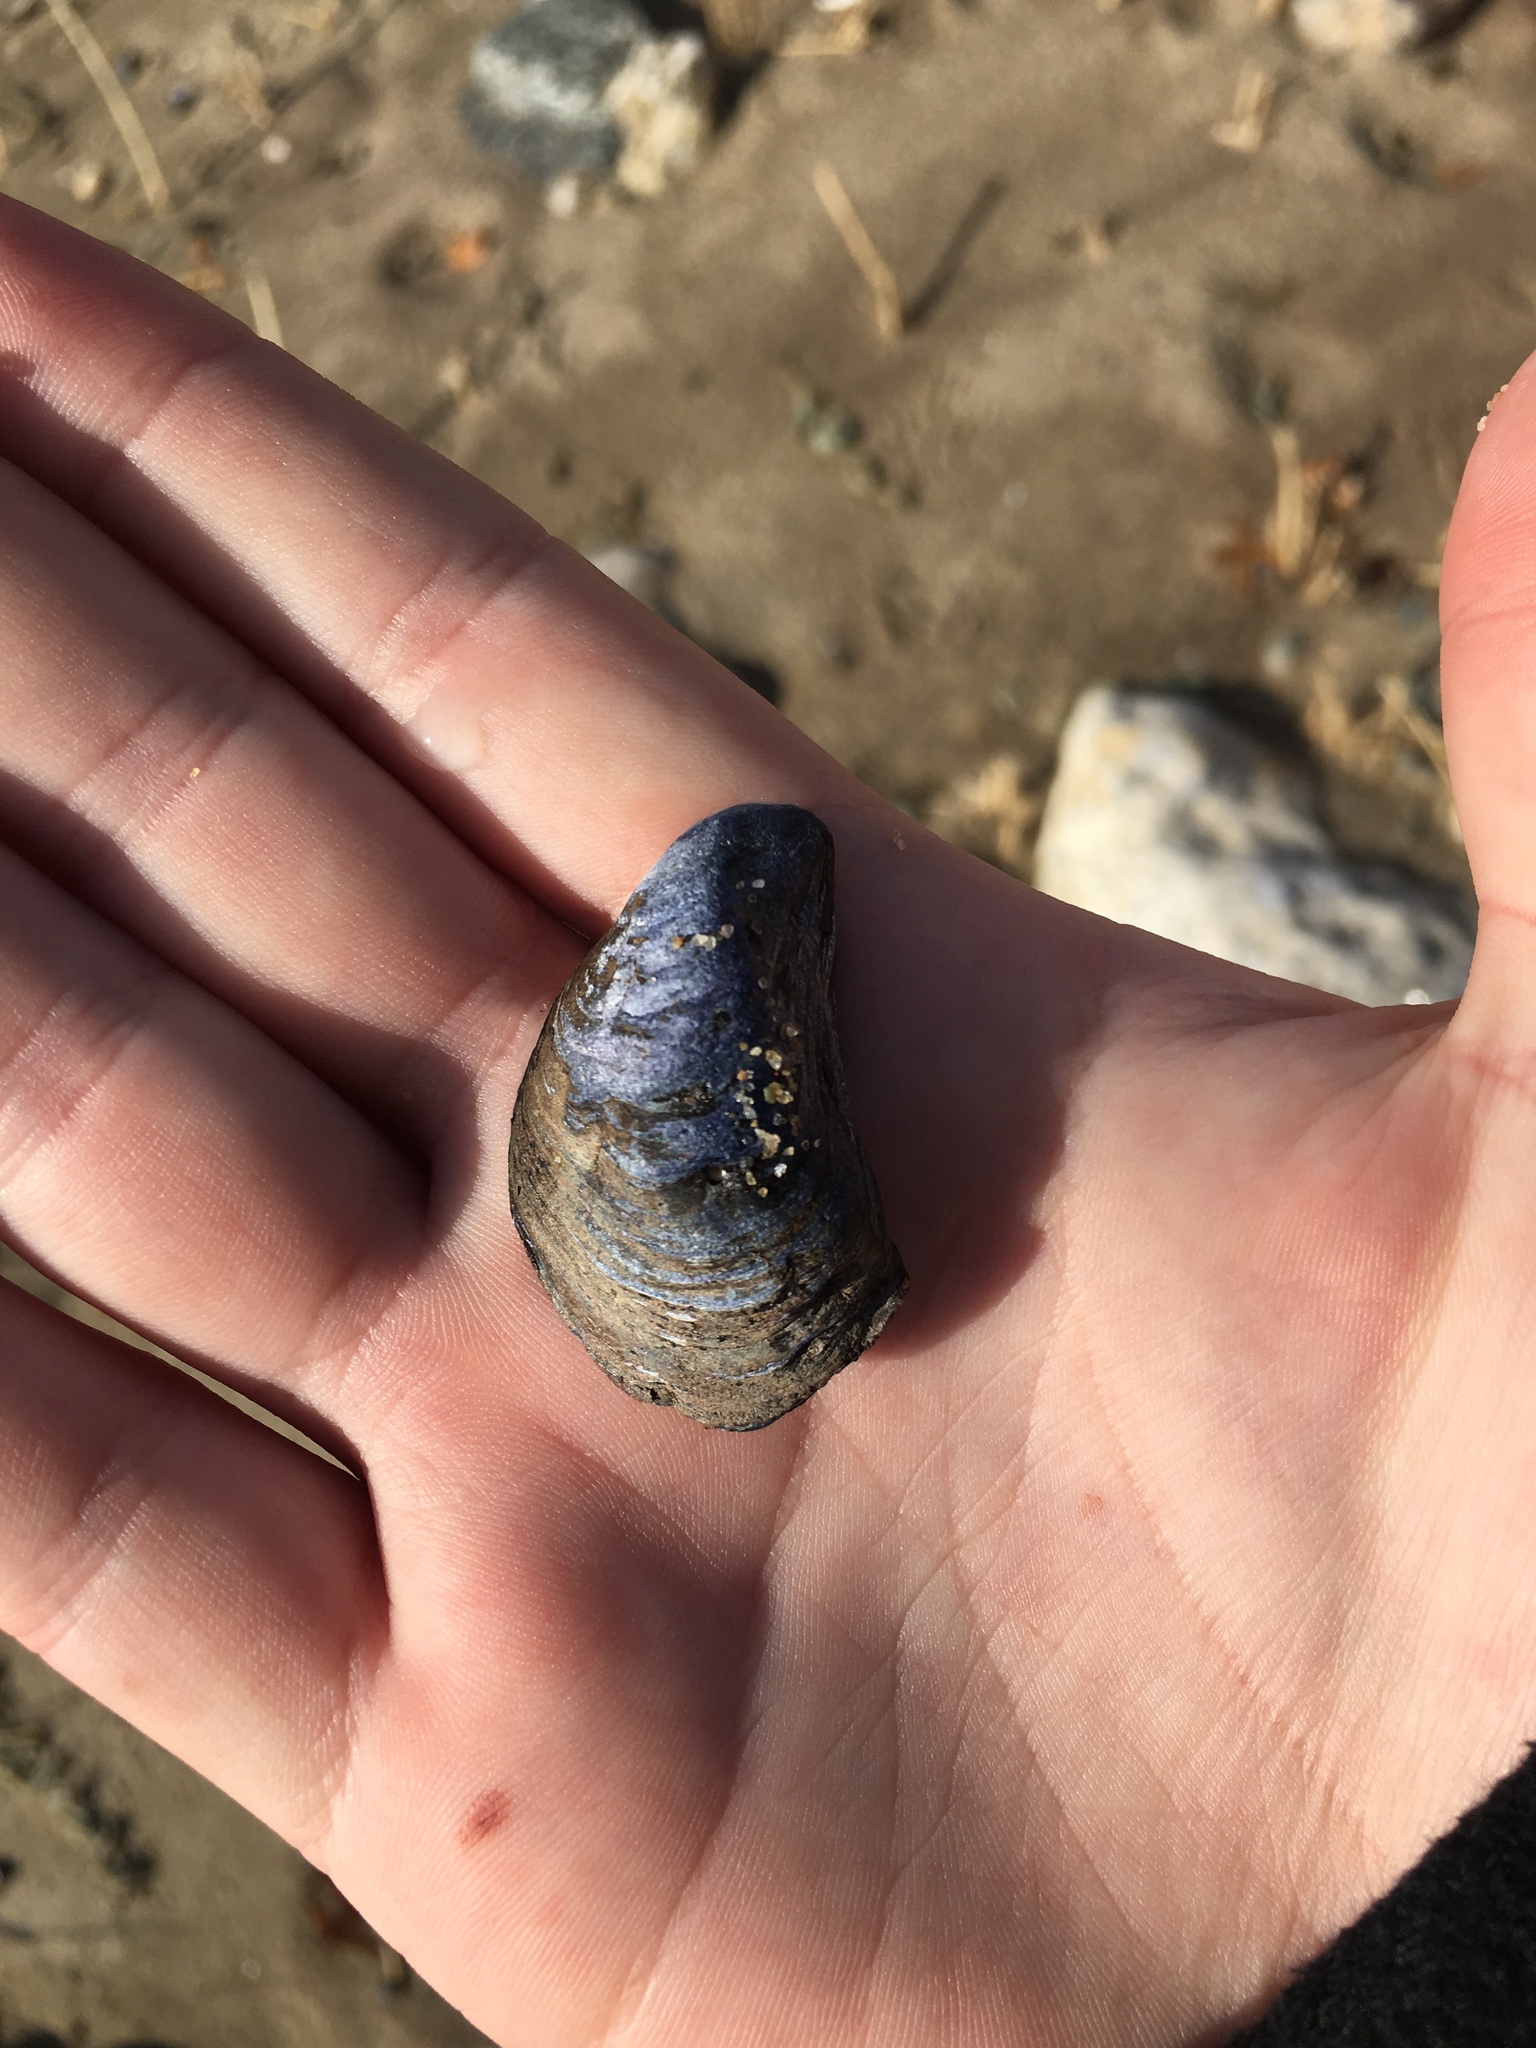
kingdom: Animalia
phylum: Mollusca
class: Bivalvia
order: Mytilida
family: Mytilidae
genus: Mytilus
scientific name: Mytilus edulis
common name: Blue mussel
